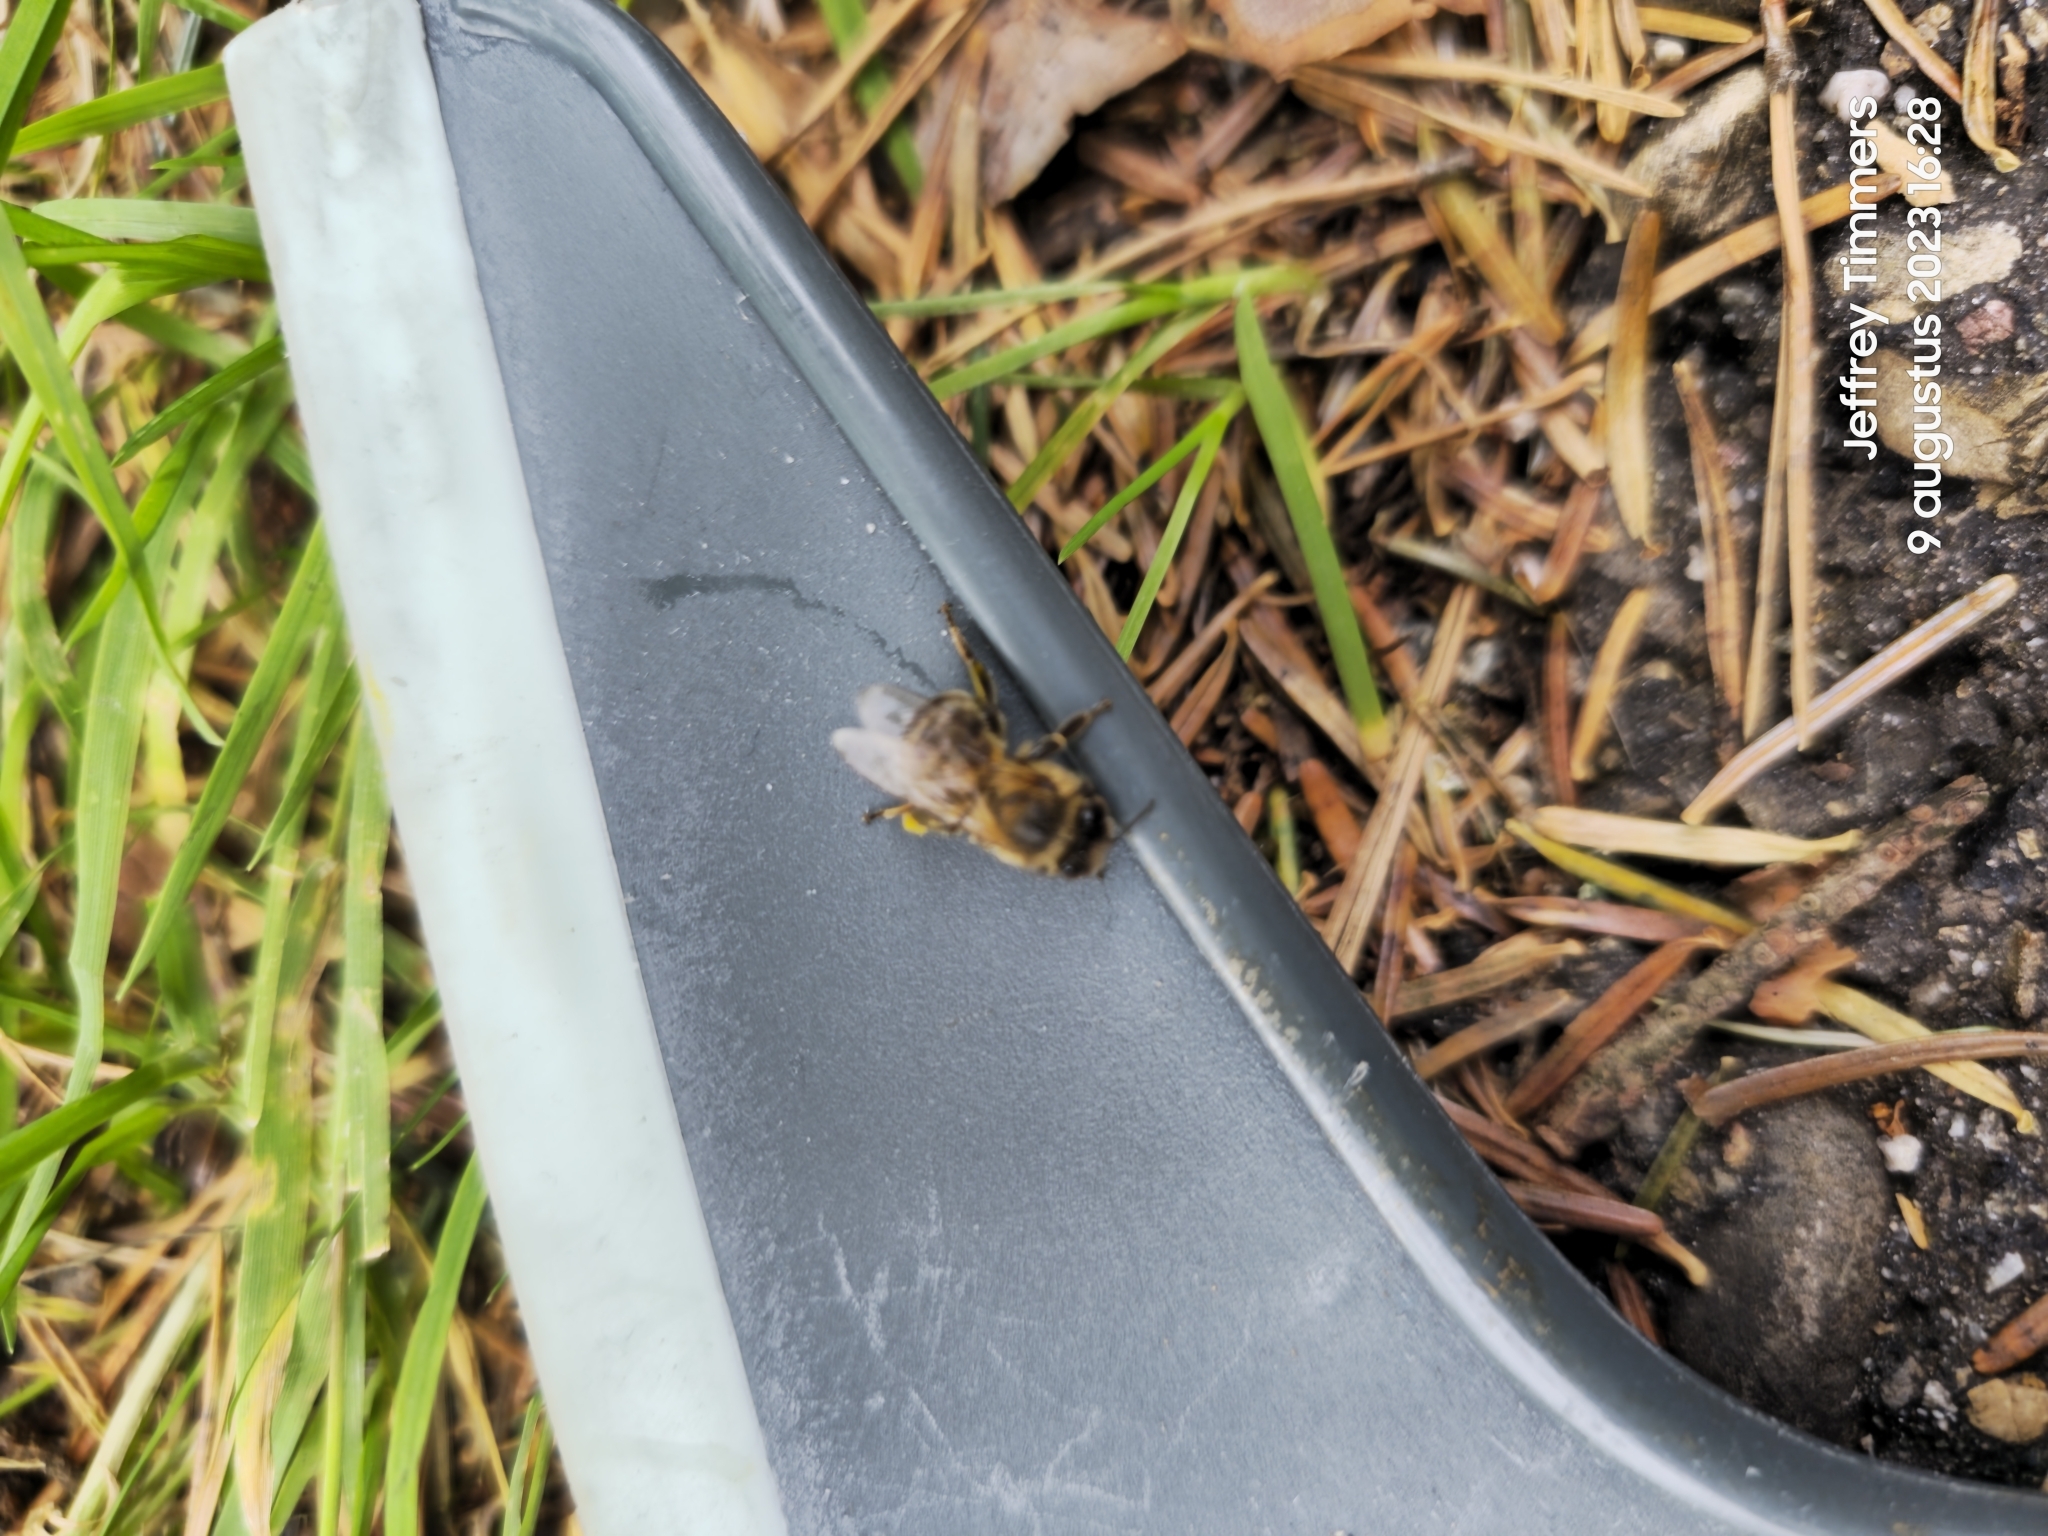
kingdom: Animalia
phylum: Arthropoda
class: Insecta
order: Hymenoptera
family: Apidae
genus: Apis
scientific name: Apis mellifera
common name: Honey bee
